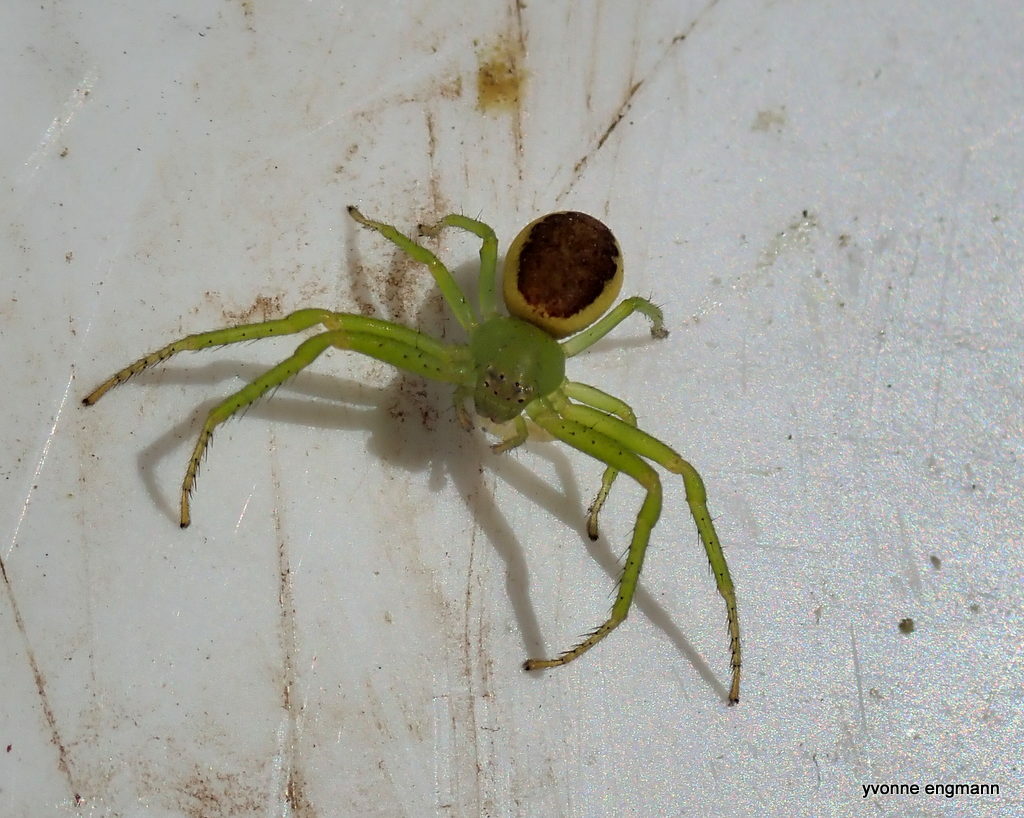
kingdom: Animalia
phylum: Arthropoda
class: Arachnida
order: Araneae
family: Thomisidae
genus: Diaea
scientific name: Diaea dorsata
